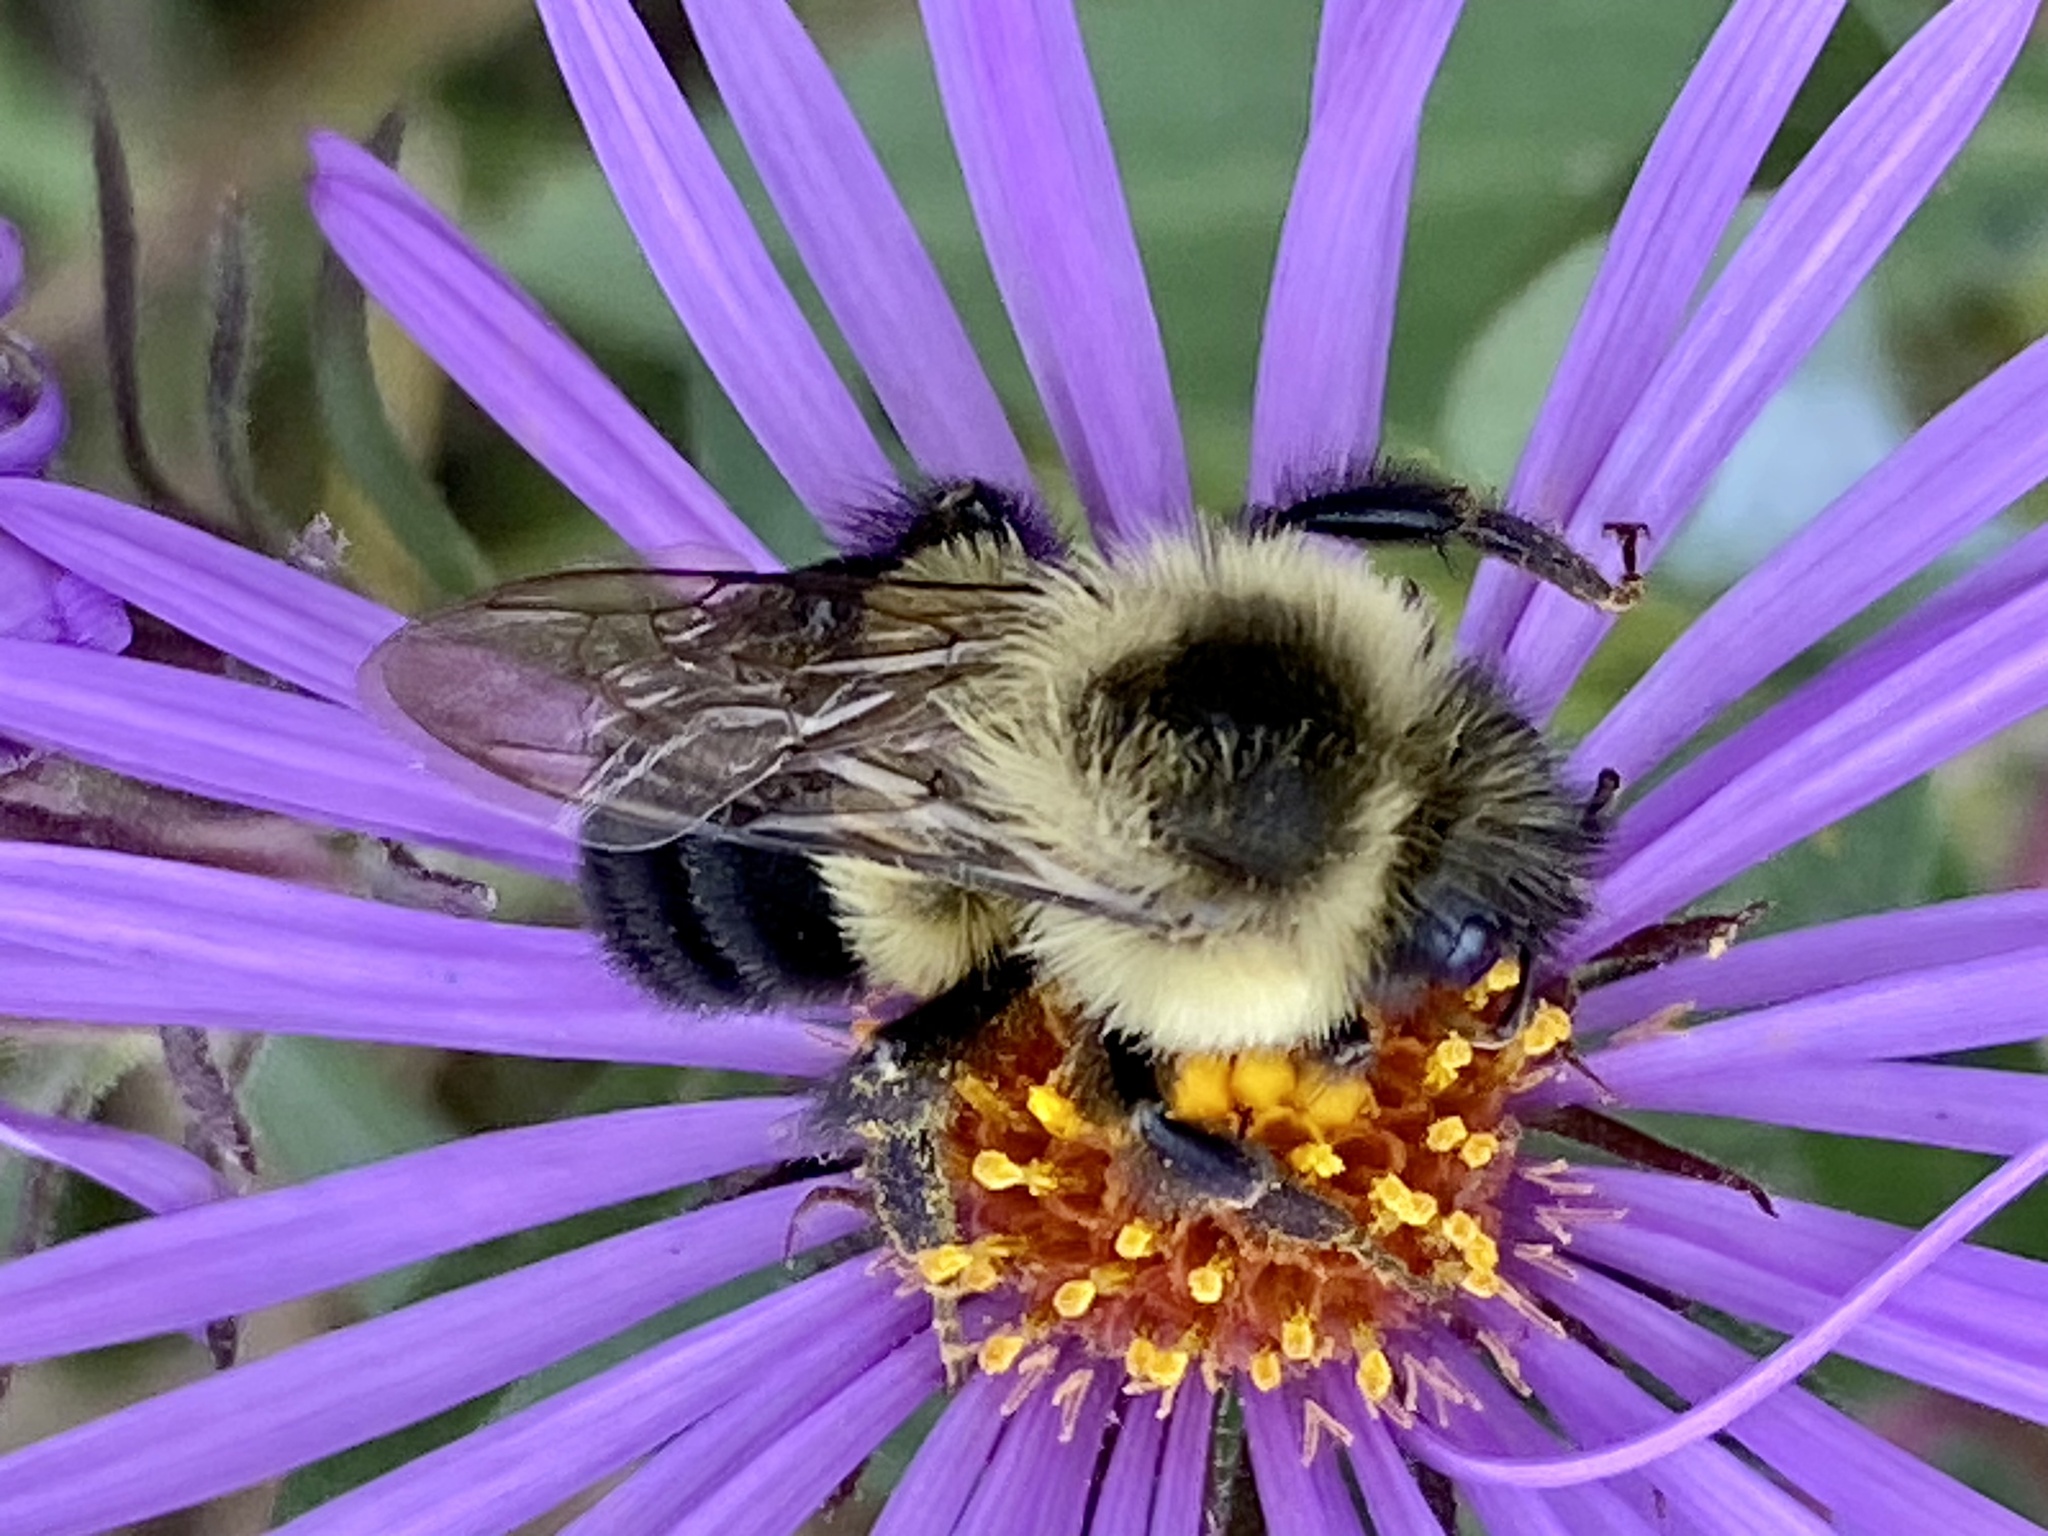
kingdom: Animalia
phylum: Arthropoda
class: Insecta
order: Hymenoptera
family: Apidae
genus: Bombus
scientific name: Bombus impatiens
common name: Common eastern bumble bee
